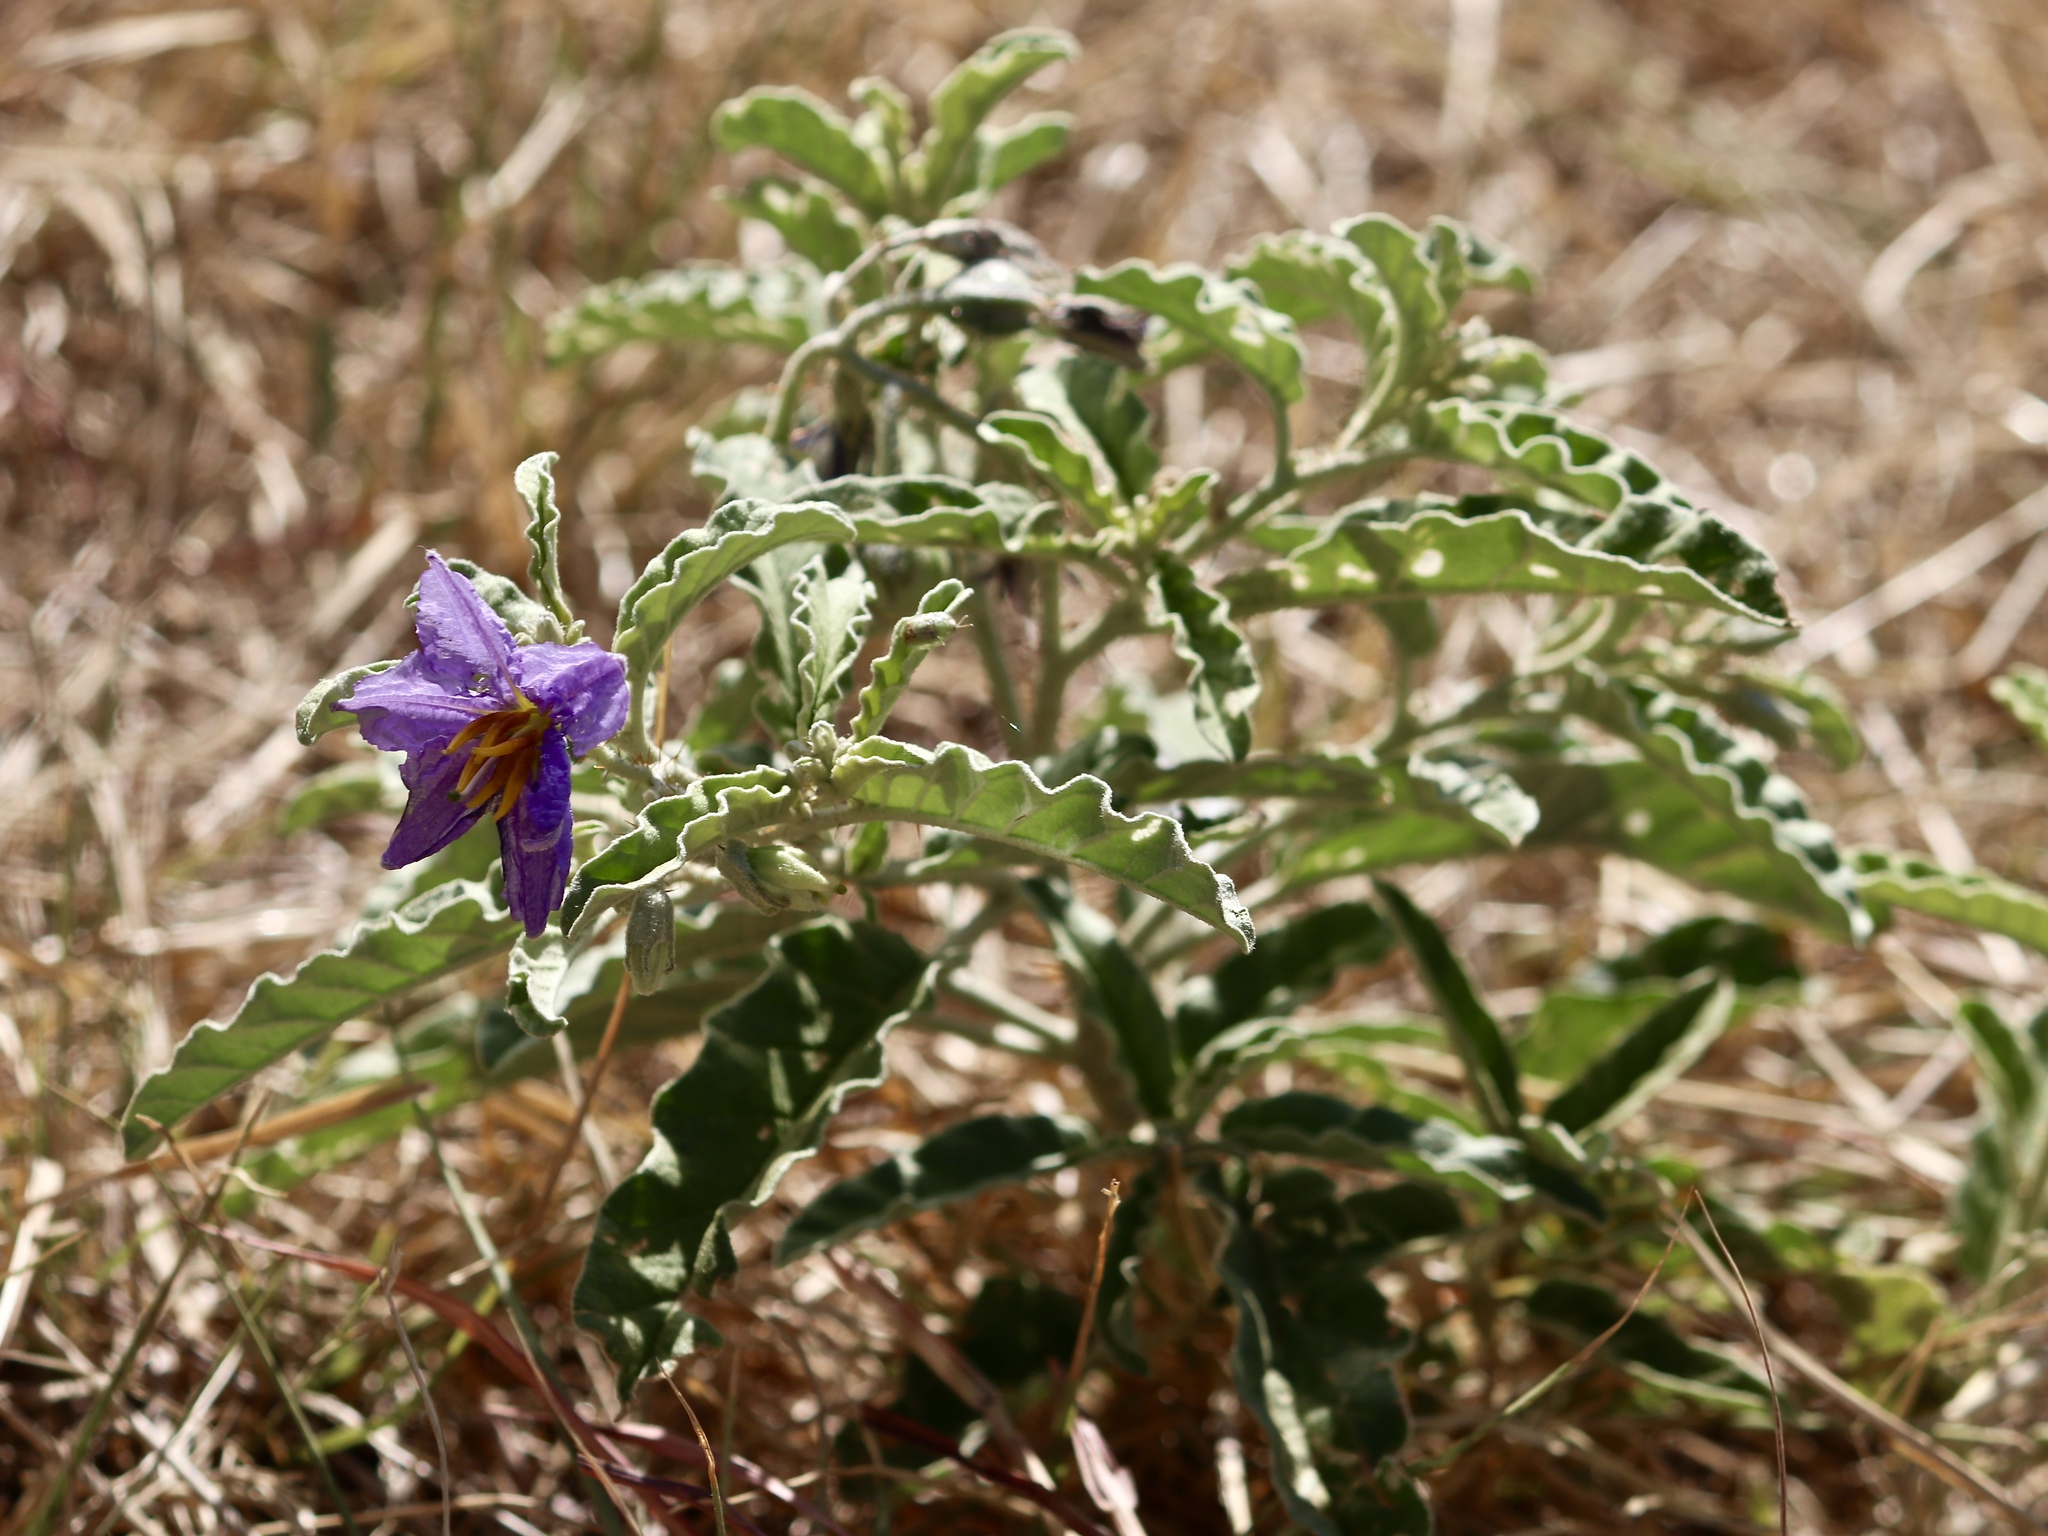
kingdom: Plantae
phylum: Tracheophyta
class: Magnoliopsida
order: Solanales
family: Solanaceae
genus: Solanum
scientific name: Solanum elaeagnifolium
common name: Silverleaf nightshade
